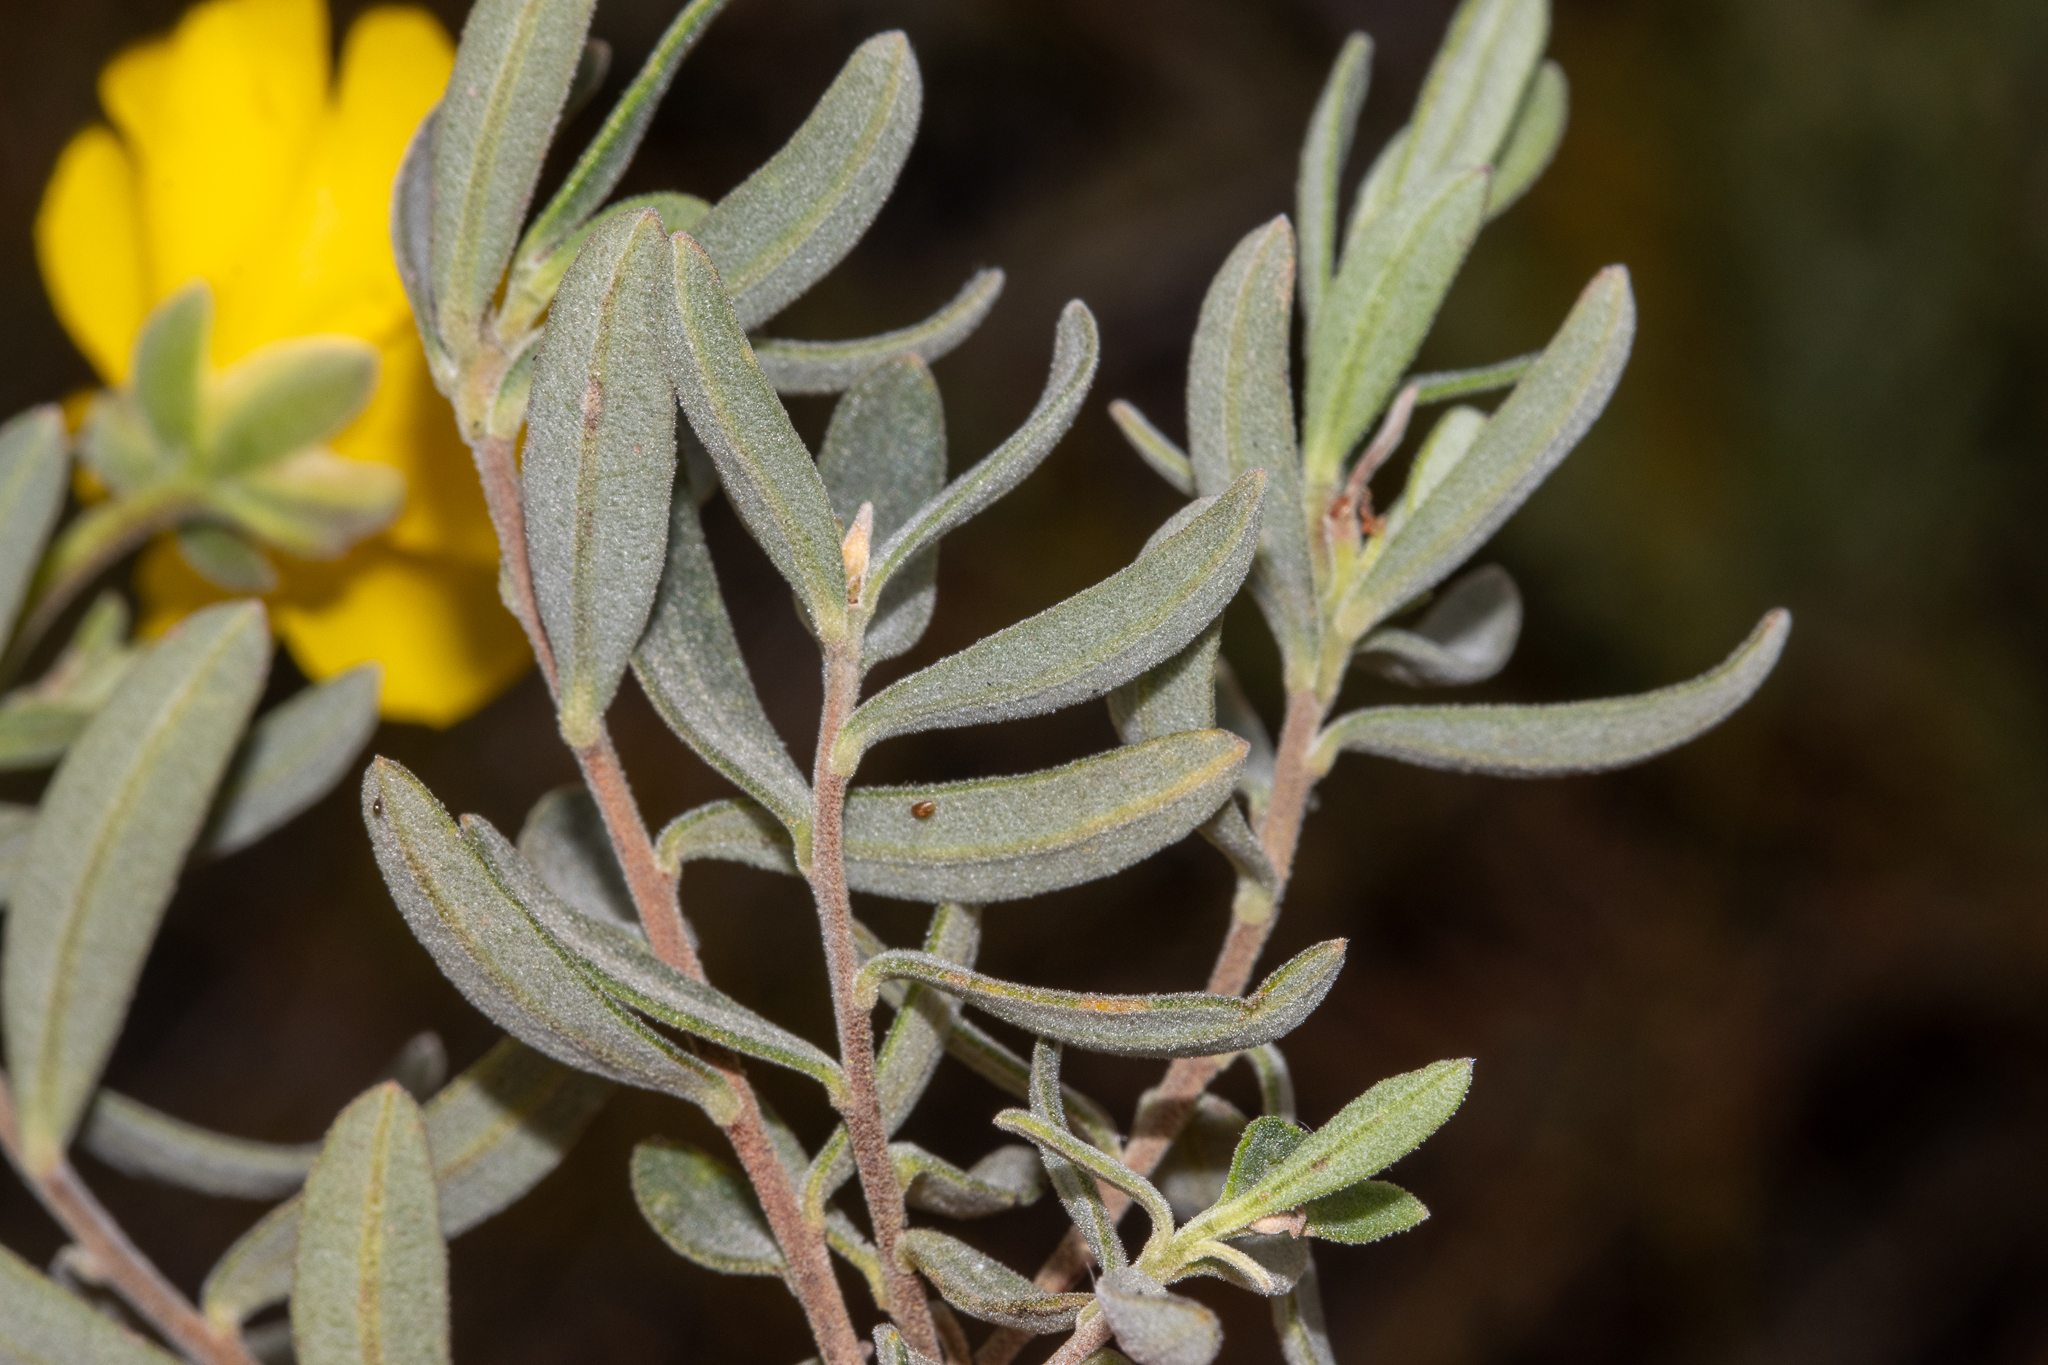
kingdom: Plantae
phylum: Tracheophyta
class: Magnoliopsida
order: Dilleniales
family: Dilleniaceae
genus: Hibbertia
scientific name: Hibbertia hypericoides
